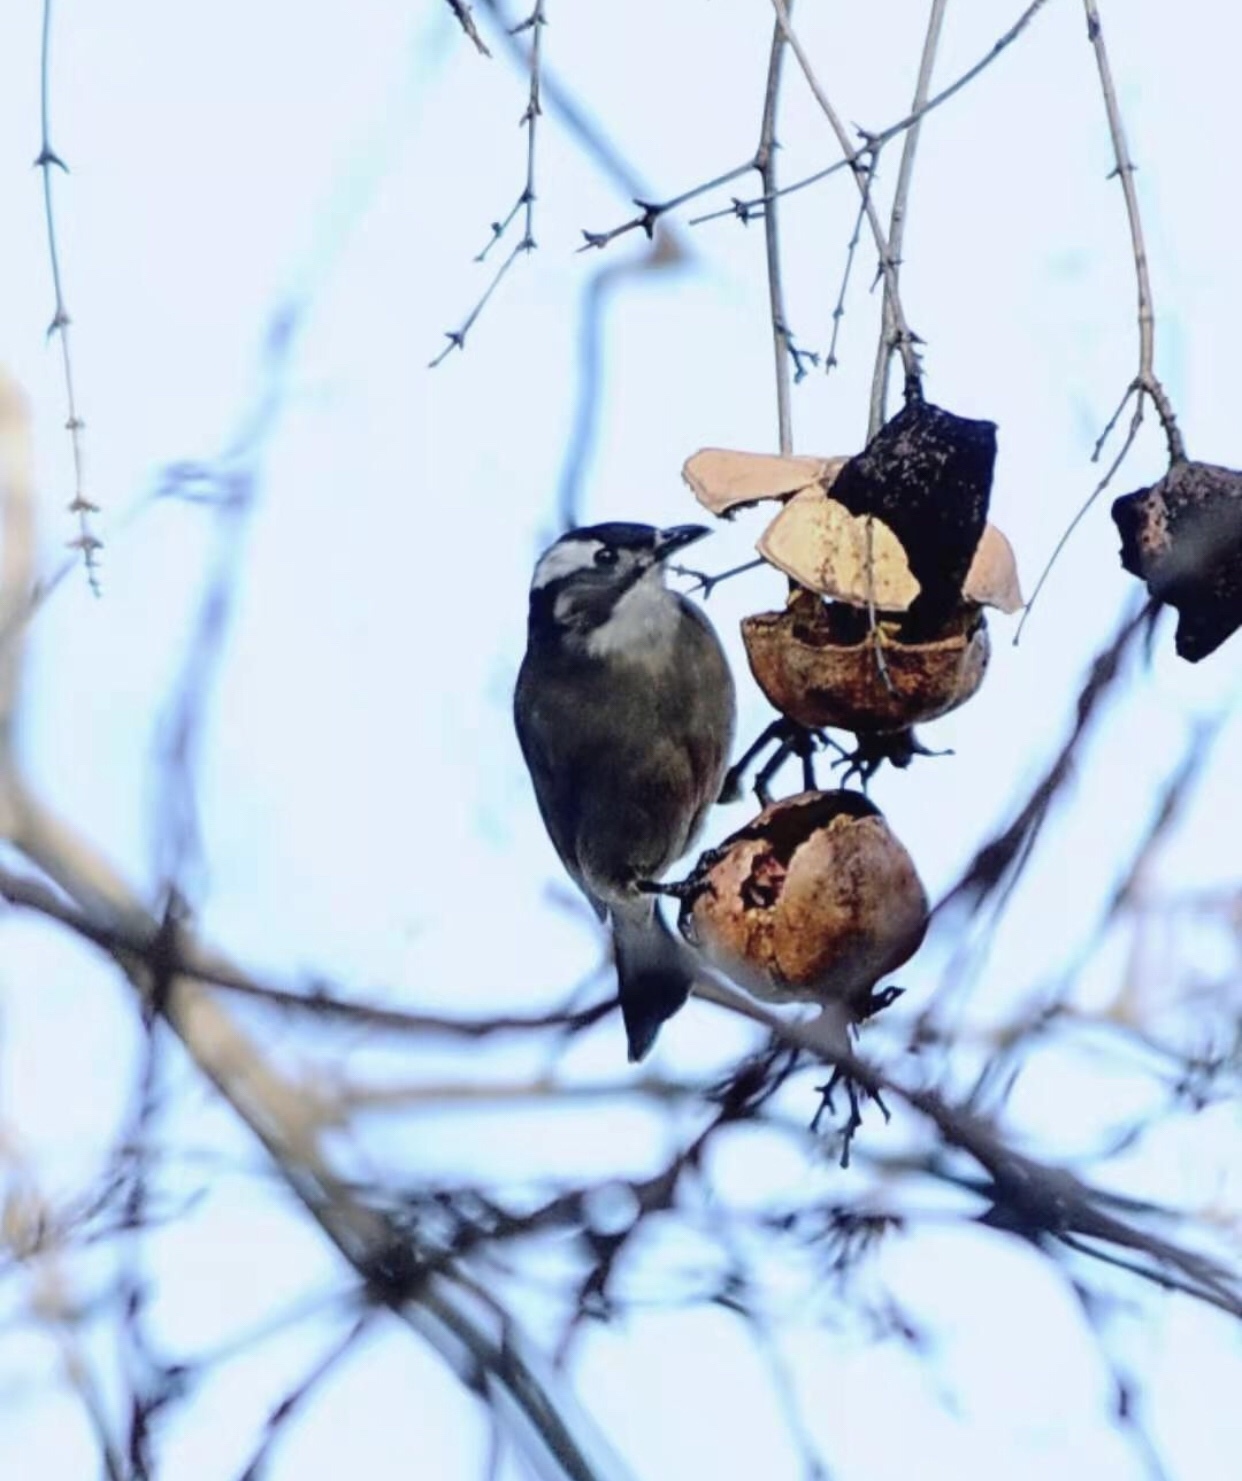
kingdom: Animalia
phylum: Chordata
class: Aves
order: Passeriformes
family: Pycnonotidae
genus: Pycnonotus
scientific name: Pycnonotus sinensis
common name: Light-vented bulbul
